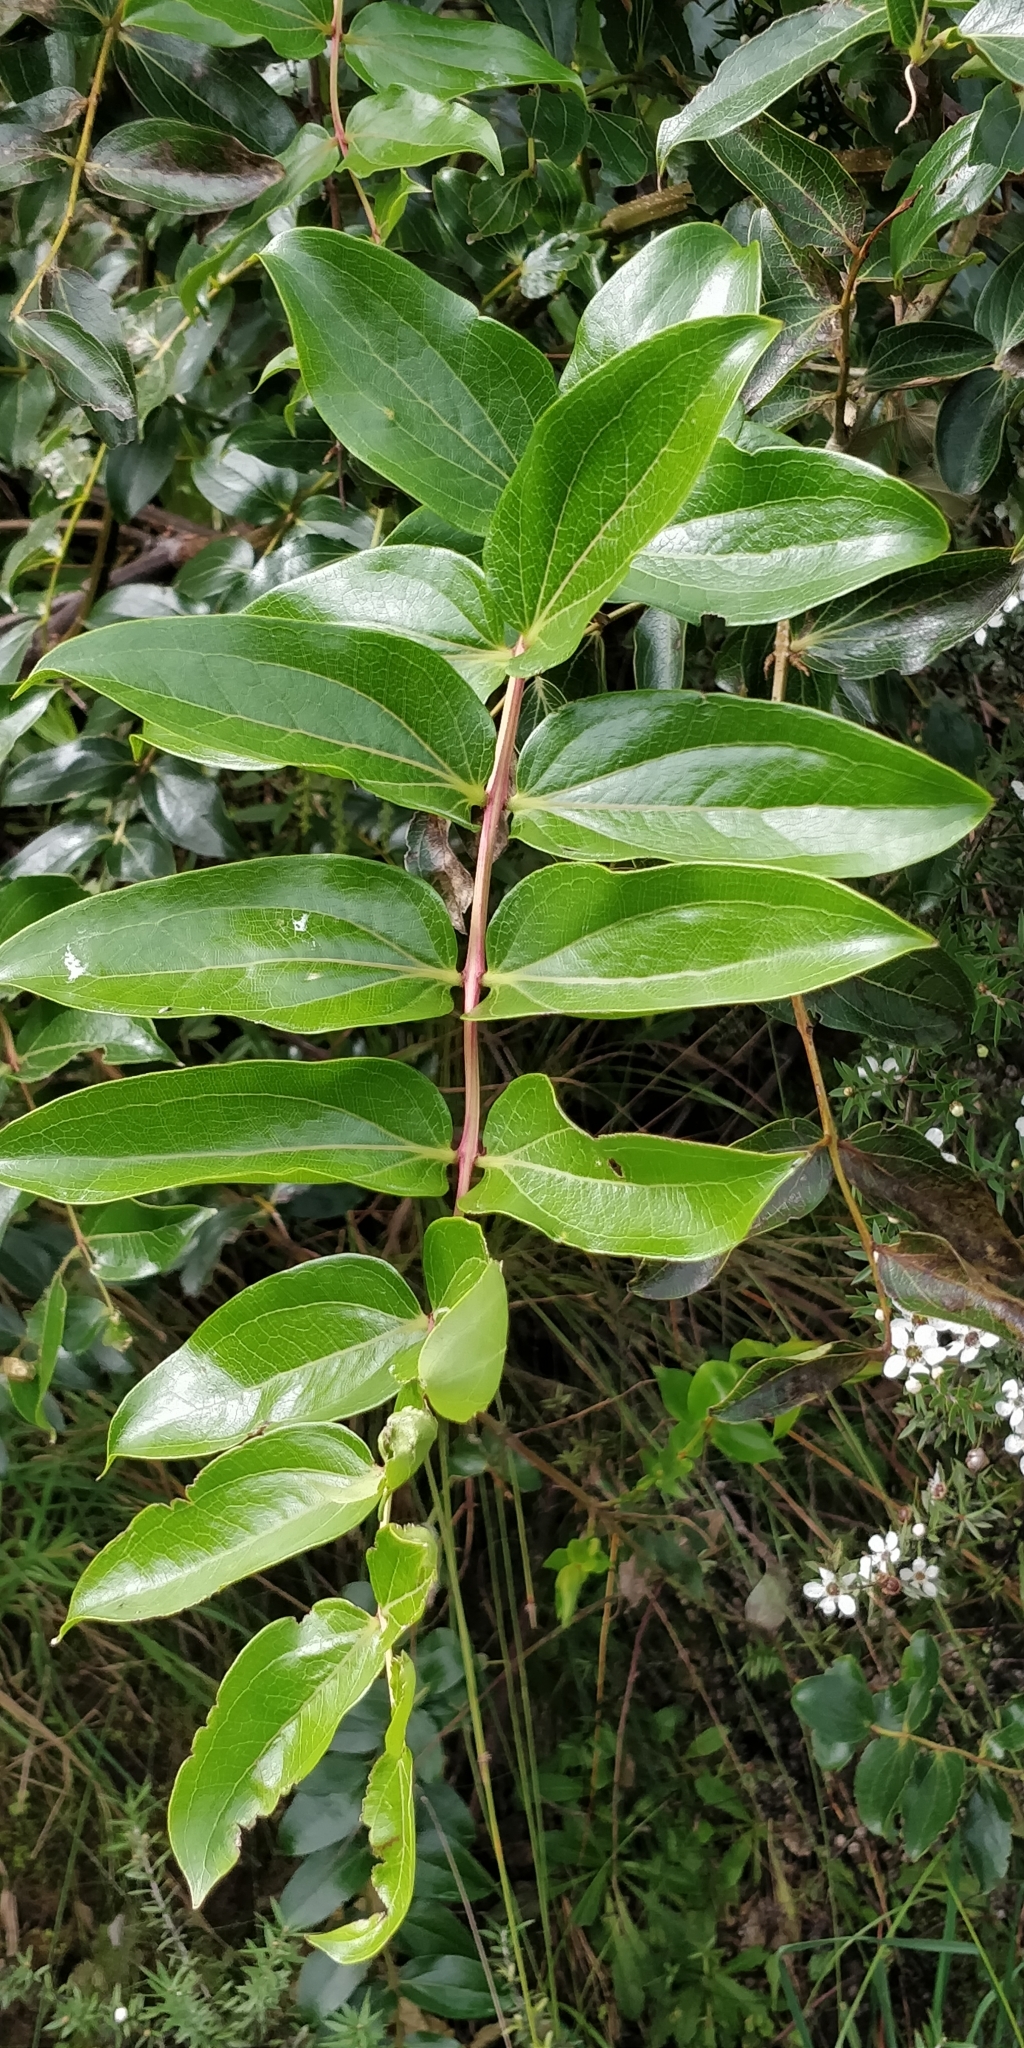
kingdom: Plantae
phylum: Tracheophyta
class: Magnoliopsida
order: Cucurbitales
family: Coriariaceae
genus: Coriaria
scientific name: Coriaria arborea
